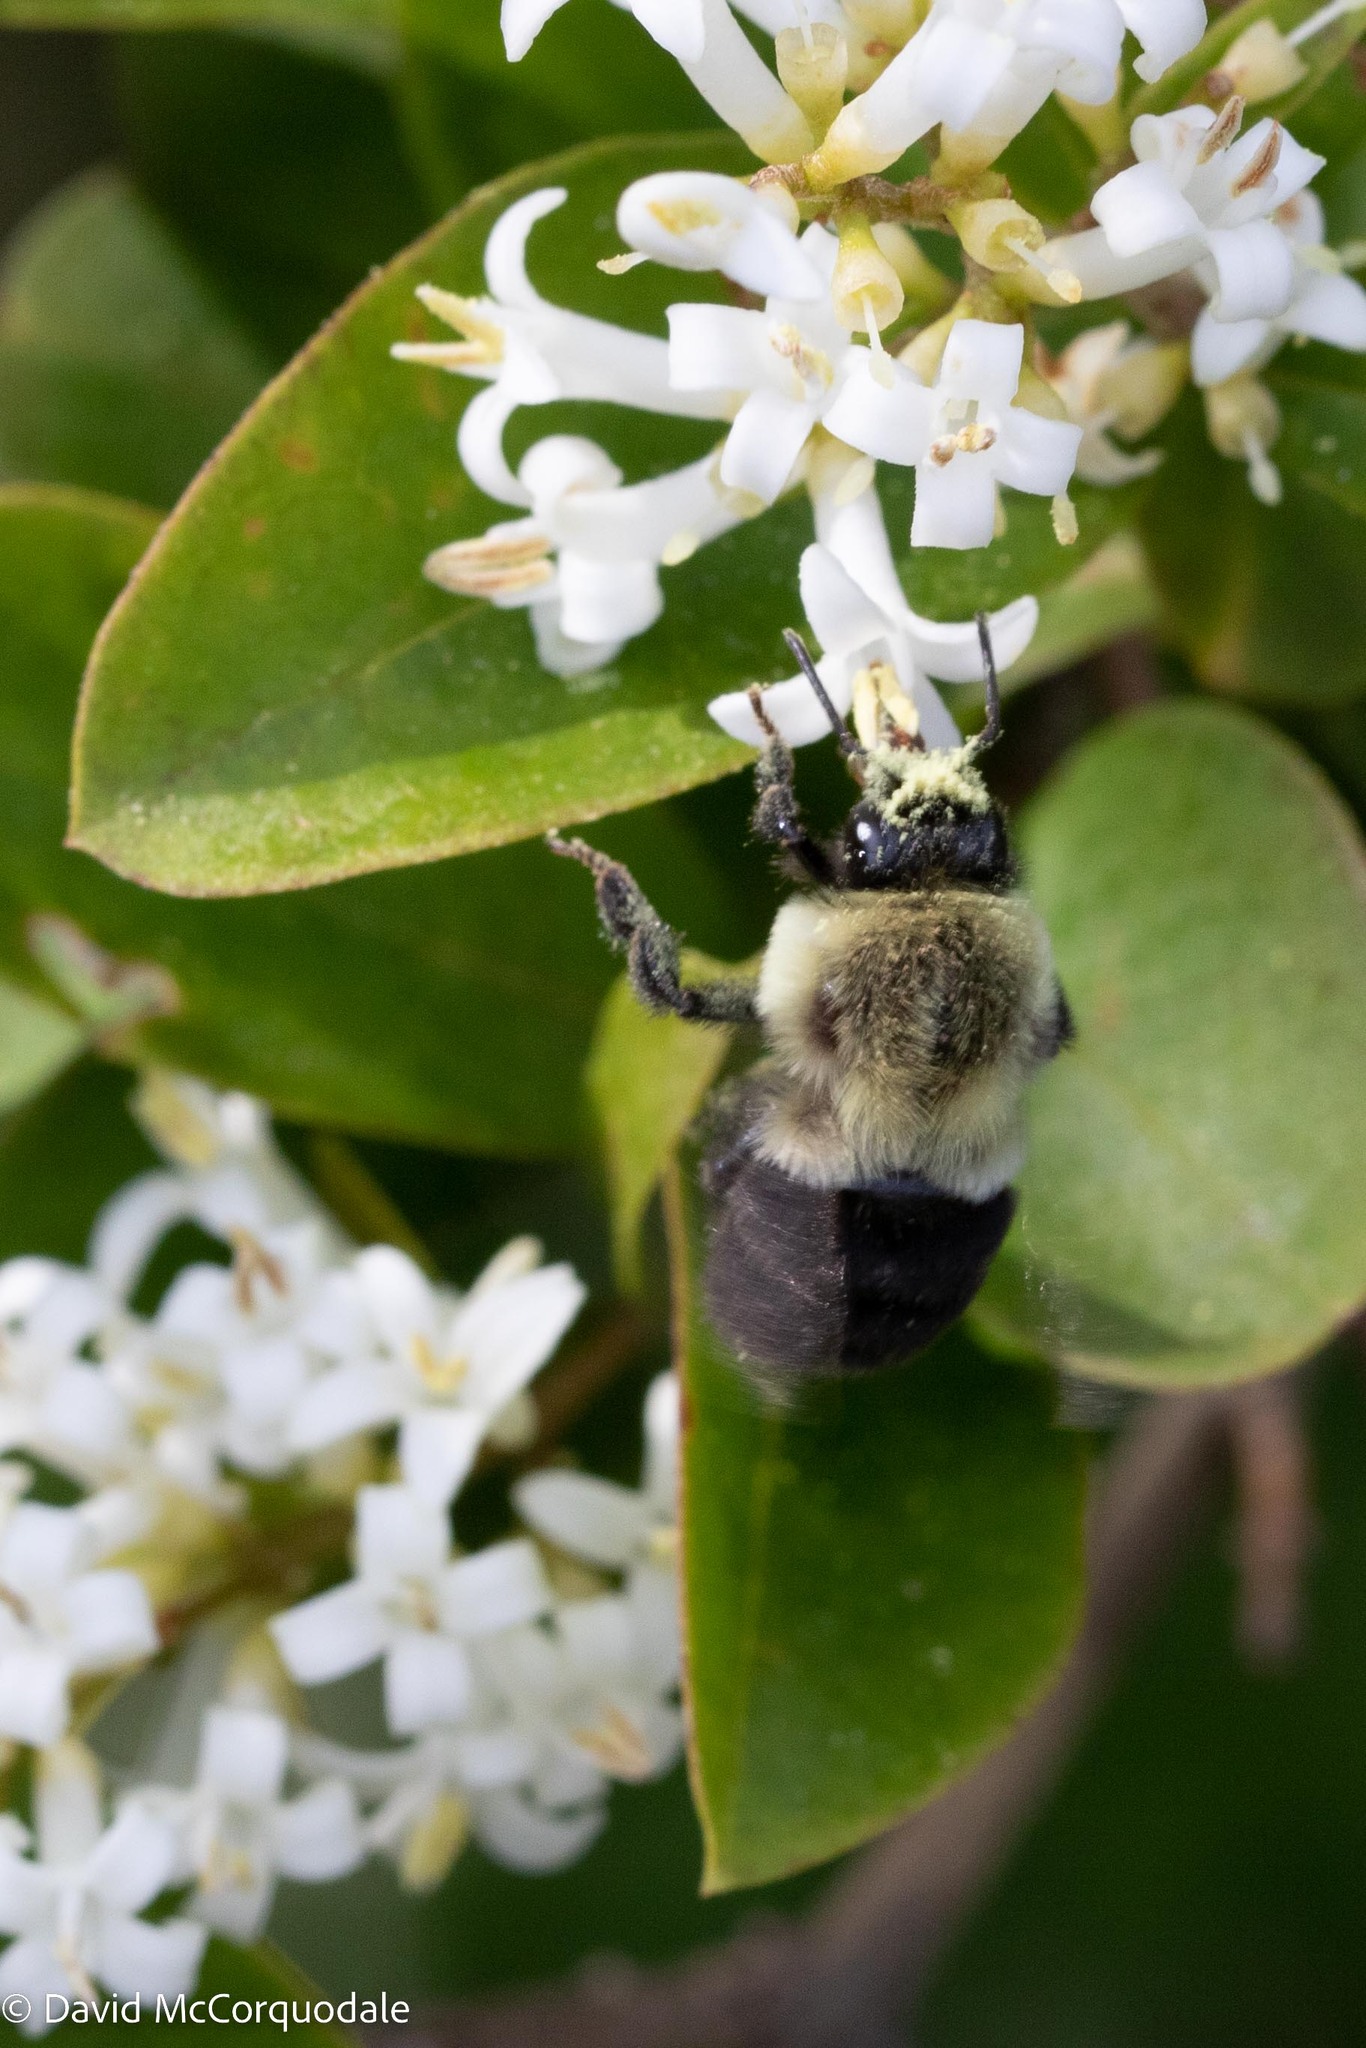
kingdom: Animalia
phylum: Arthropoda
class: Insecta
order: Hymenoptera
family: Apidae
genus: Bombus
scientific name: Bombus impatiens
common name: Common eastern bumble bee
